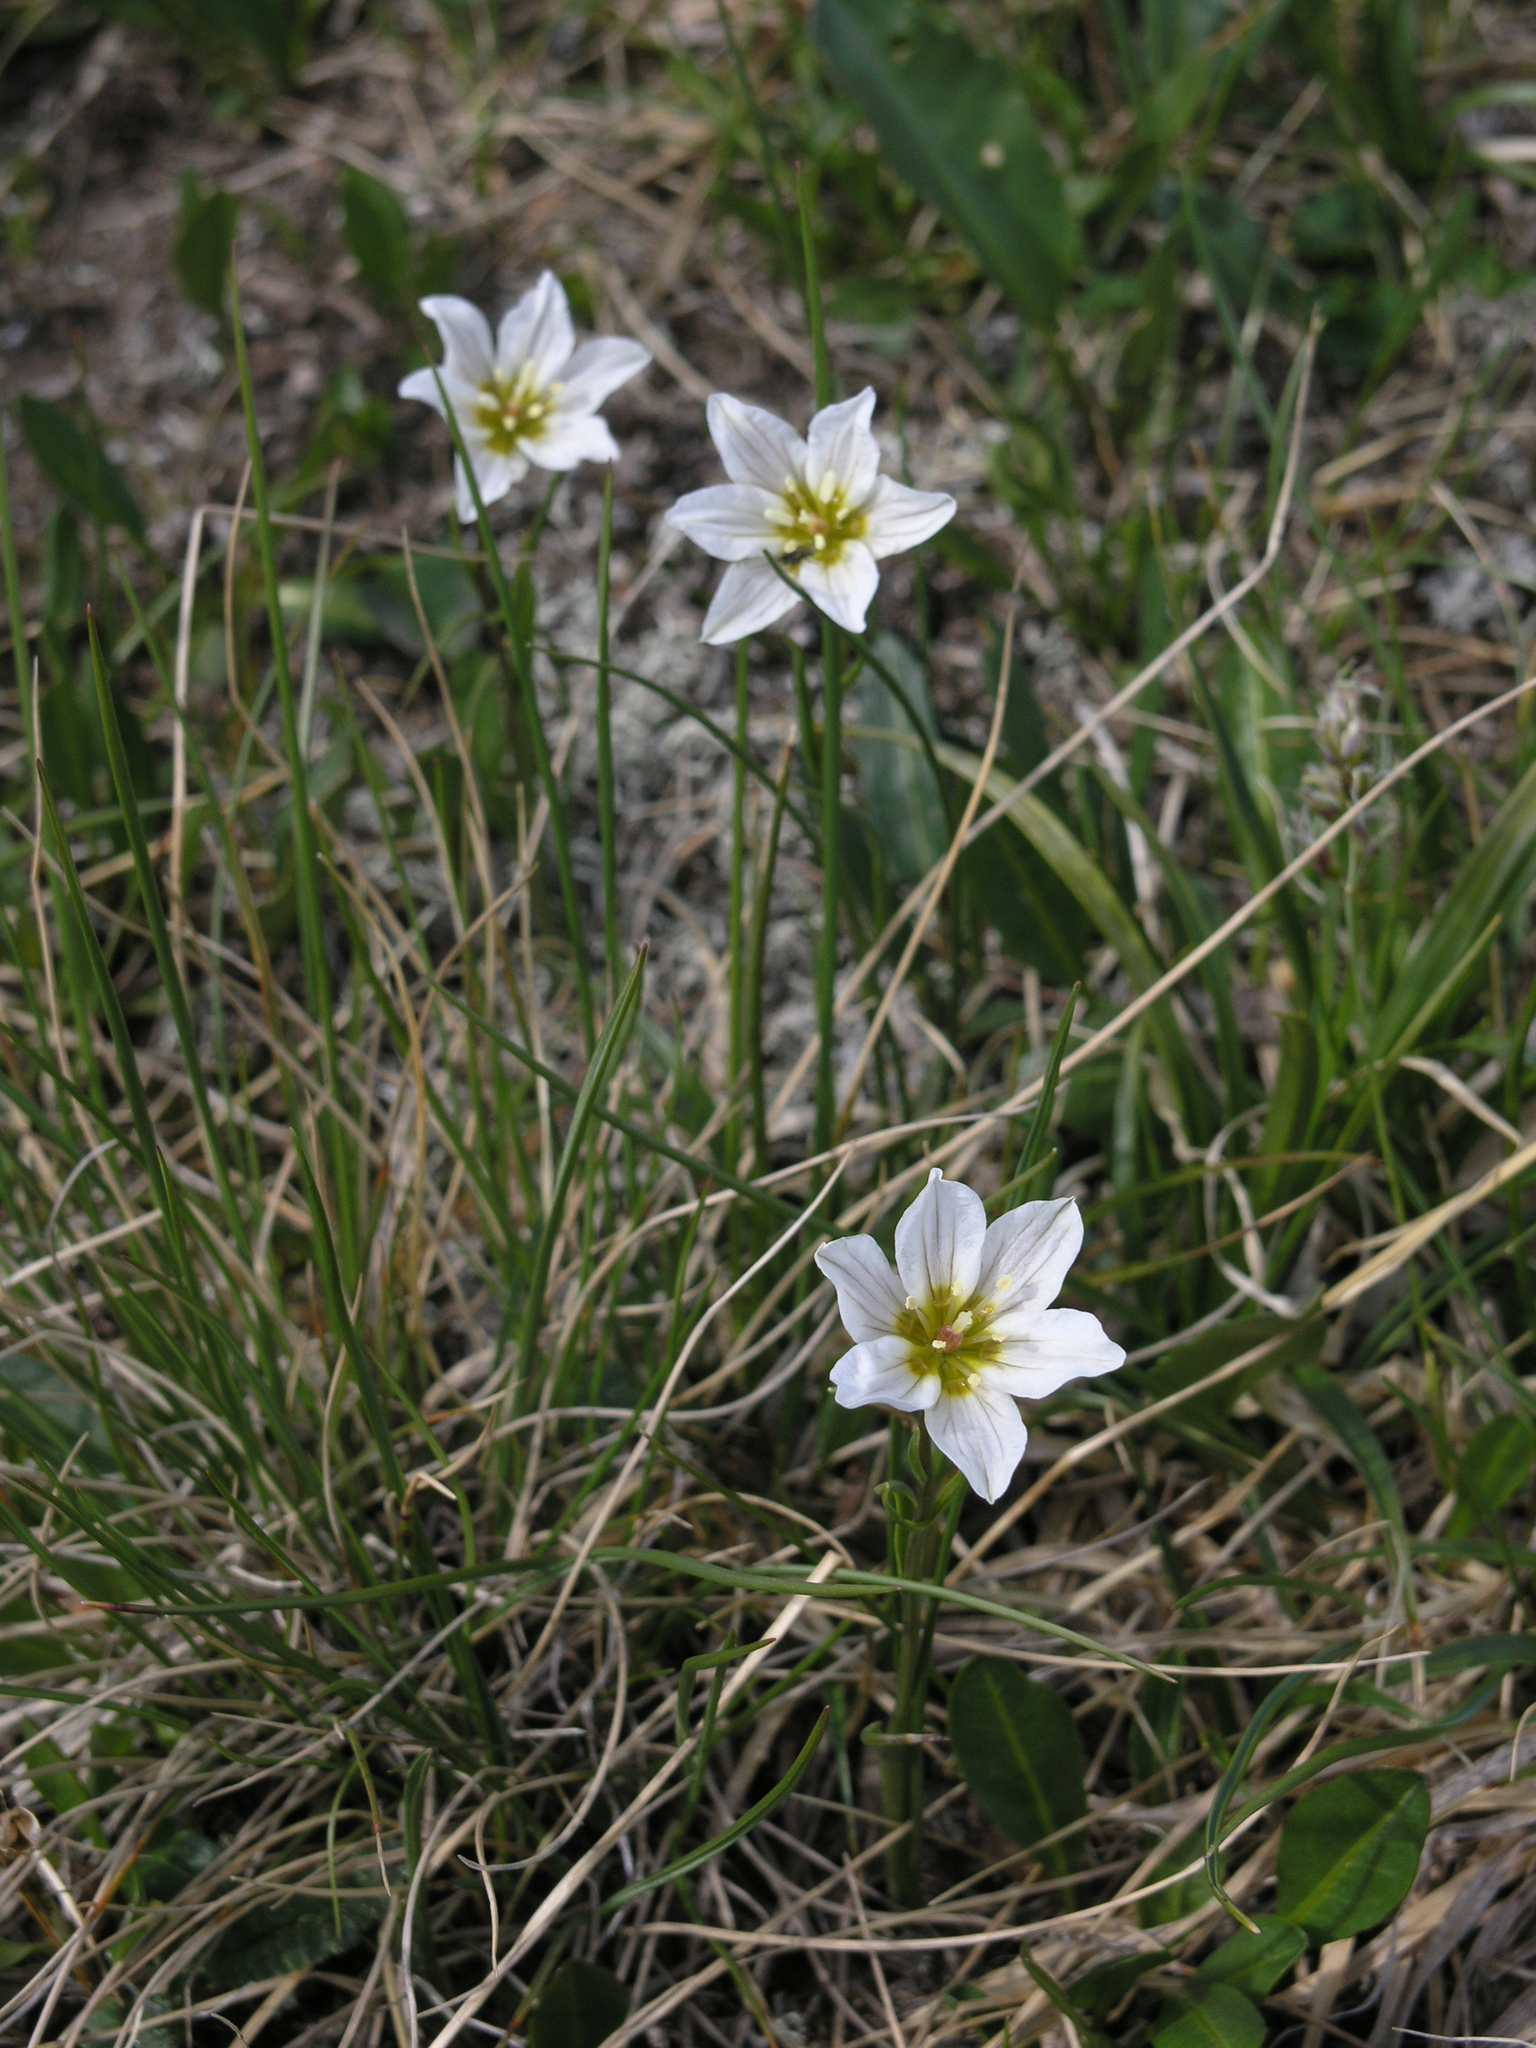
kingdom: Plantae
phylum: Tracheophyta
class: Liliopsida
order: Liliales
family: Liliaceae
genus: Gagea
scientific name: Gagea serotina
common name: Snowdon lily
